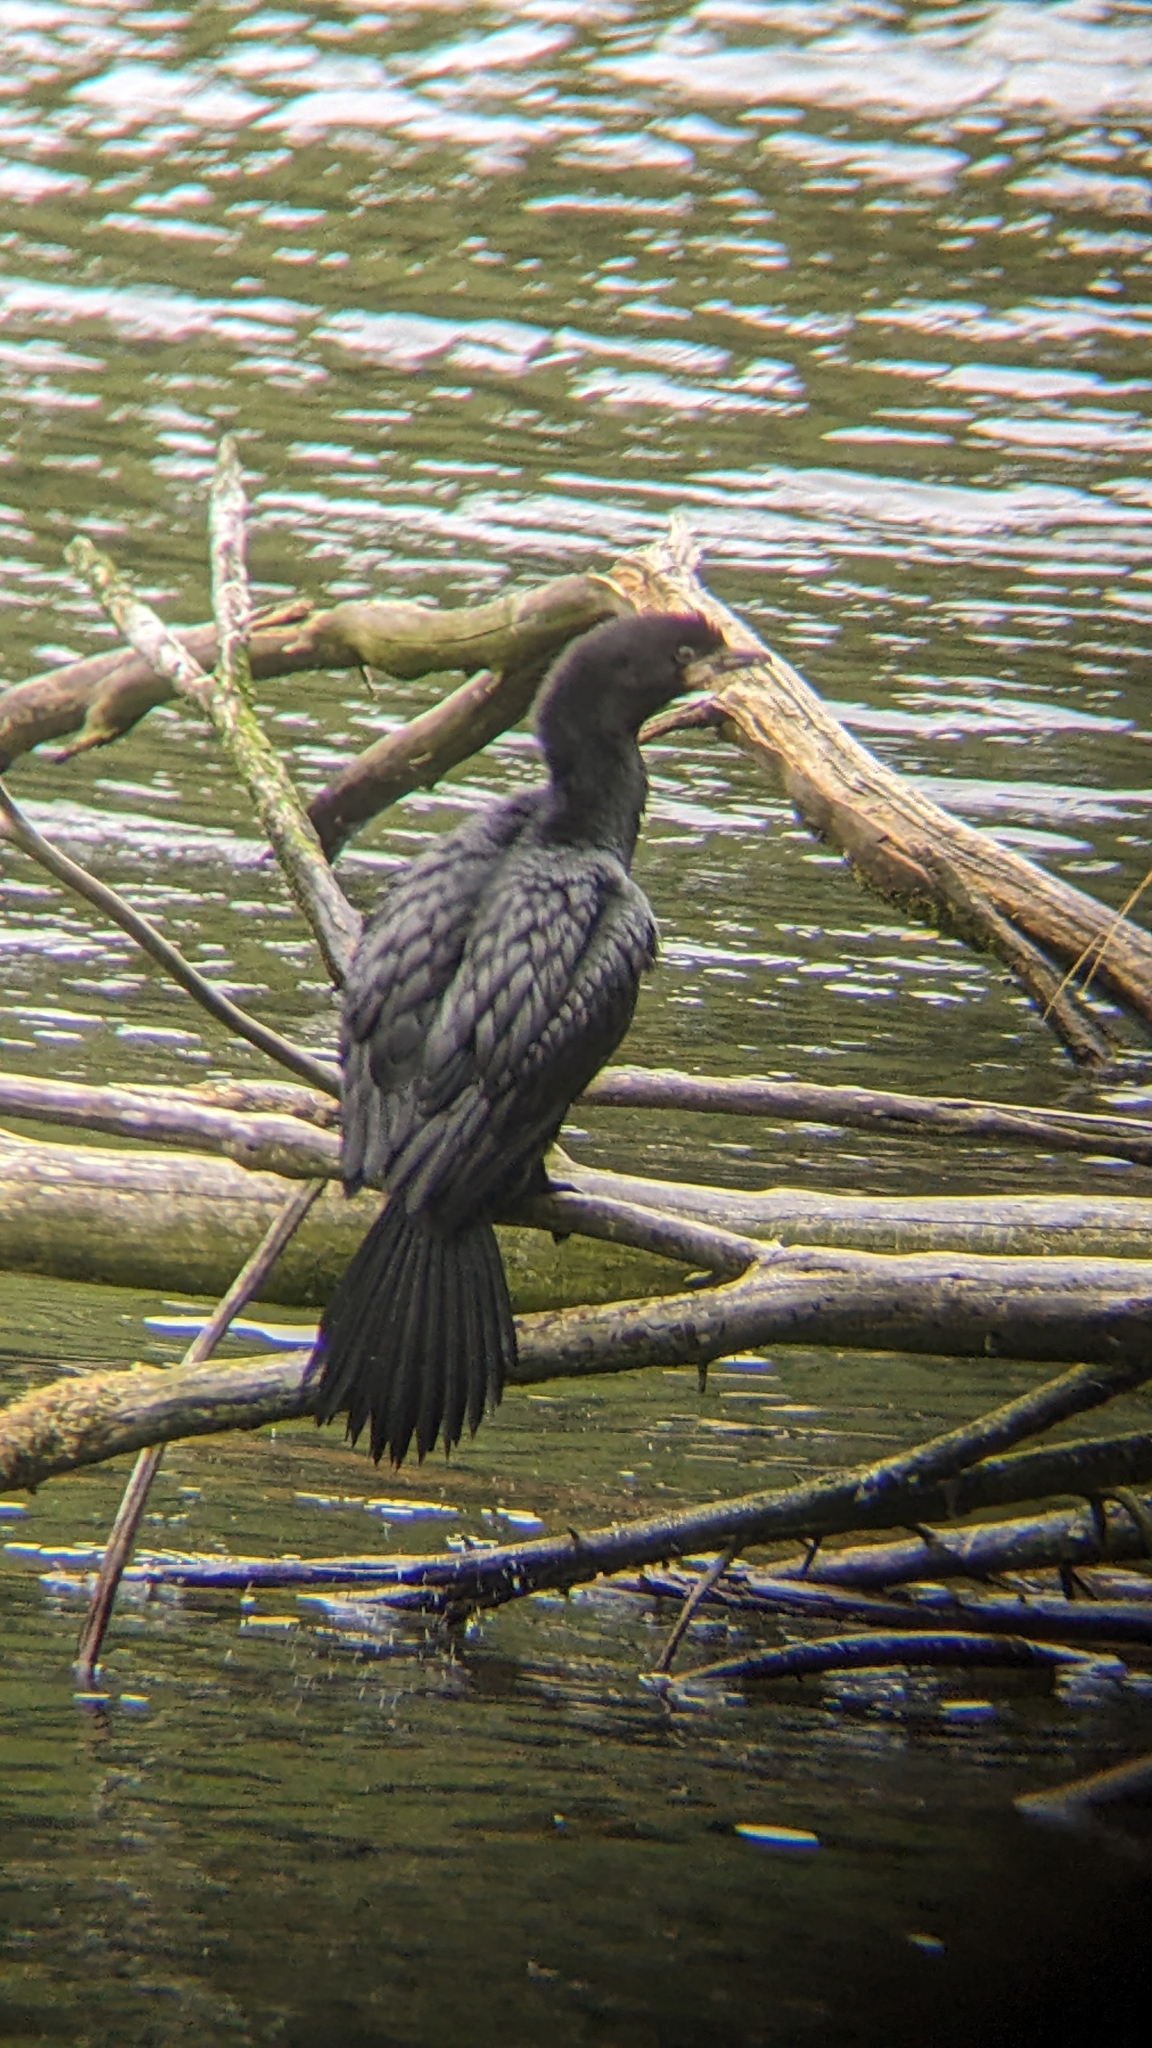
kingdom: Animalia
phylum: Chordata
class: Aves
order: Suliformes
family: Phalacrocoracidae
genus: Microcarbo
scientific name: Microcarbo melanoleucos
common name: Little pied cormorant
